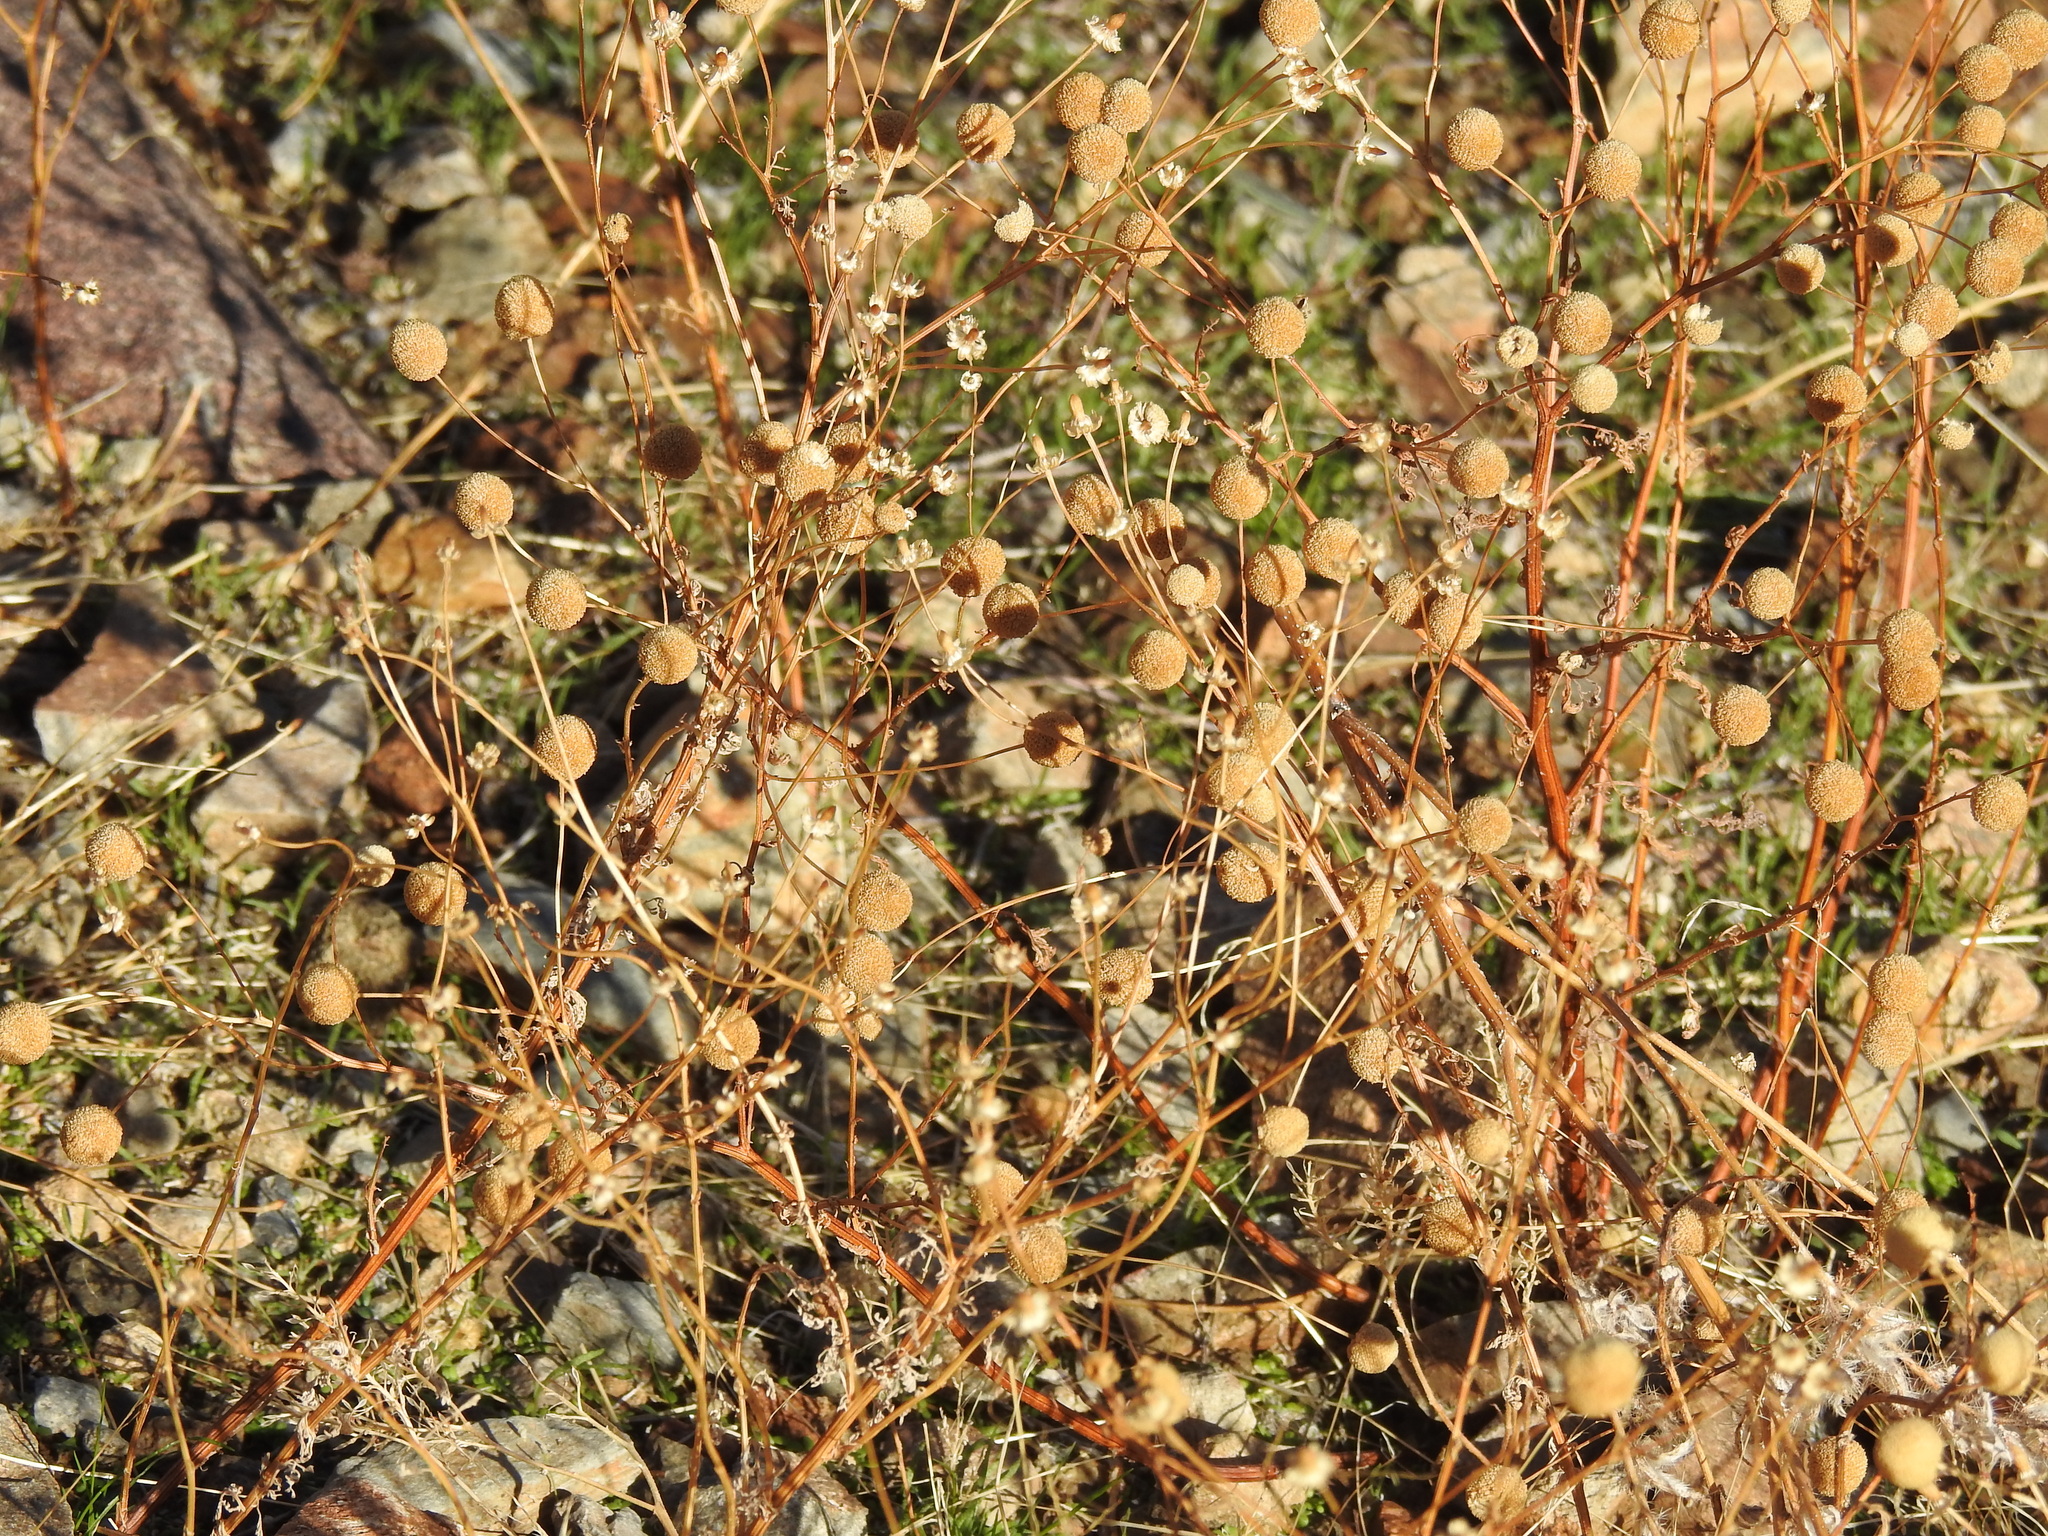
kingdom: Plantae
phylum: Tracheophyta
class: Magnoliopsida
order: Asterales
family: Asteraceae
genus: Oncosiphon
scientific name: Oncosiphon pilulifer
